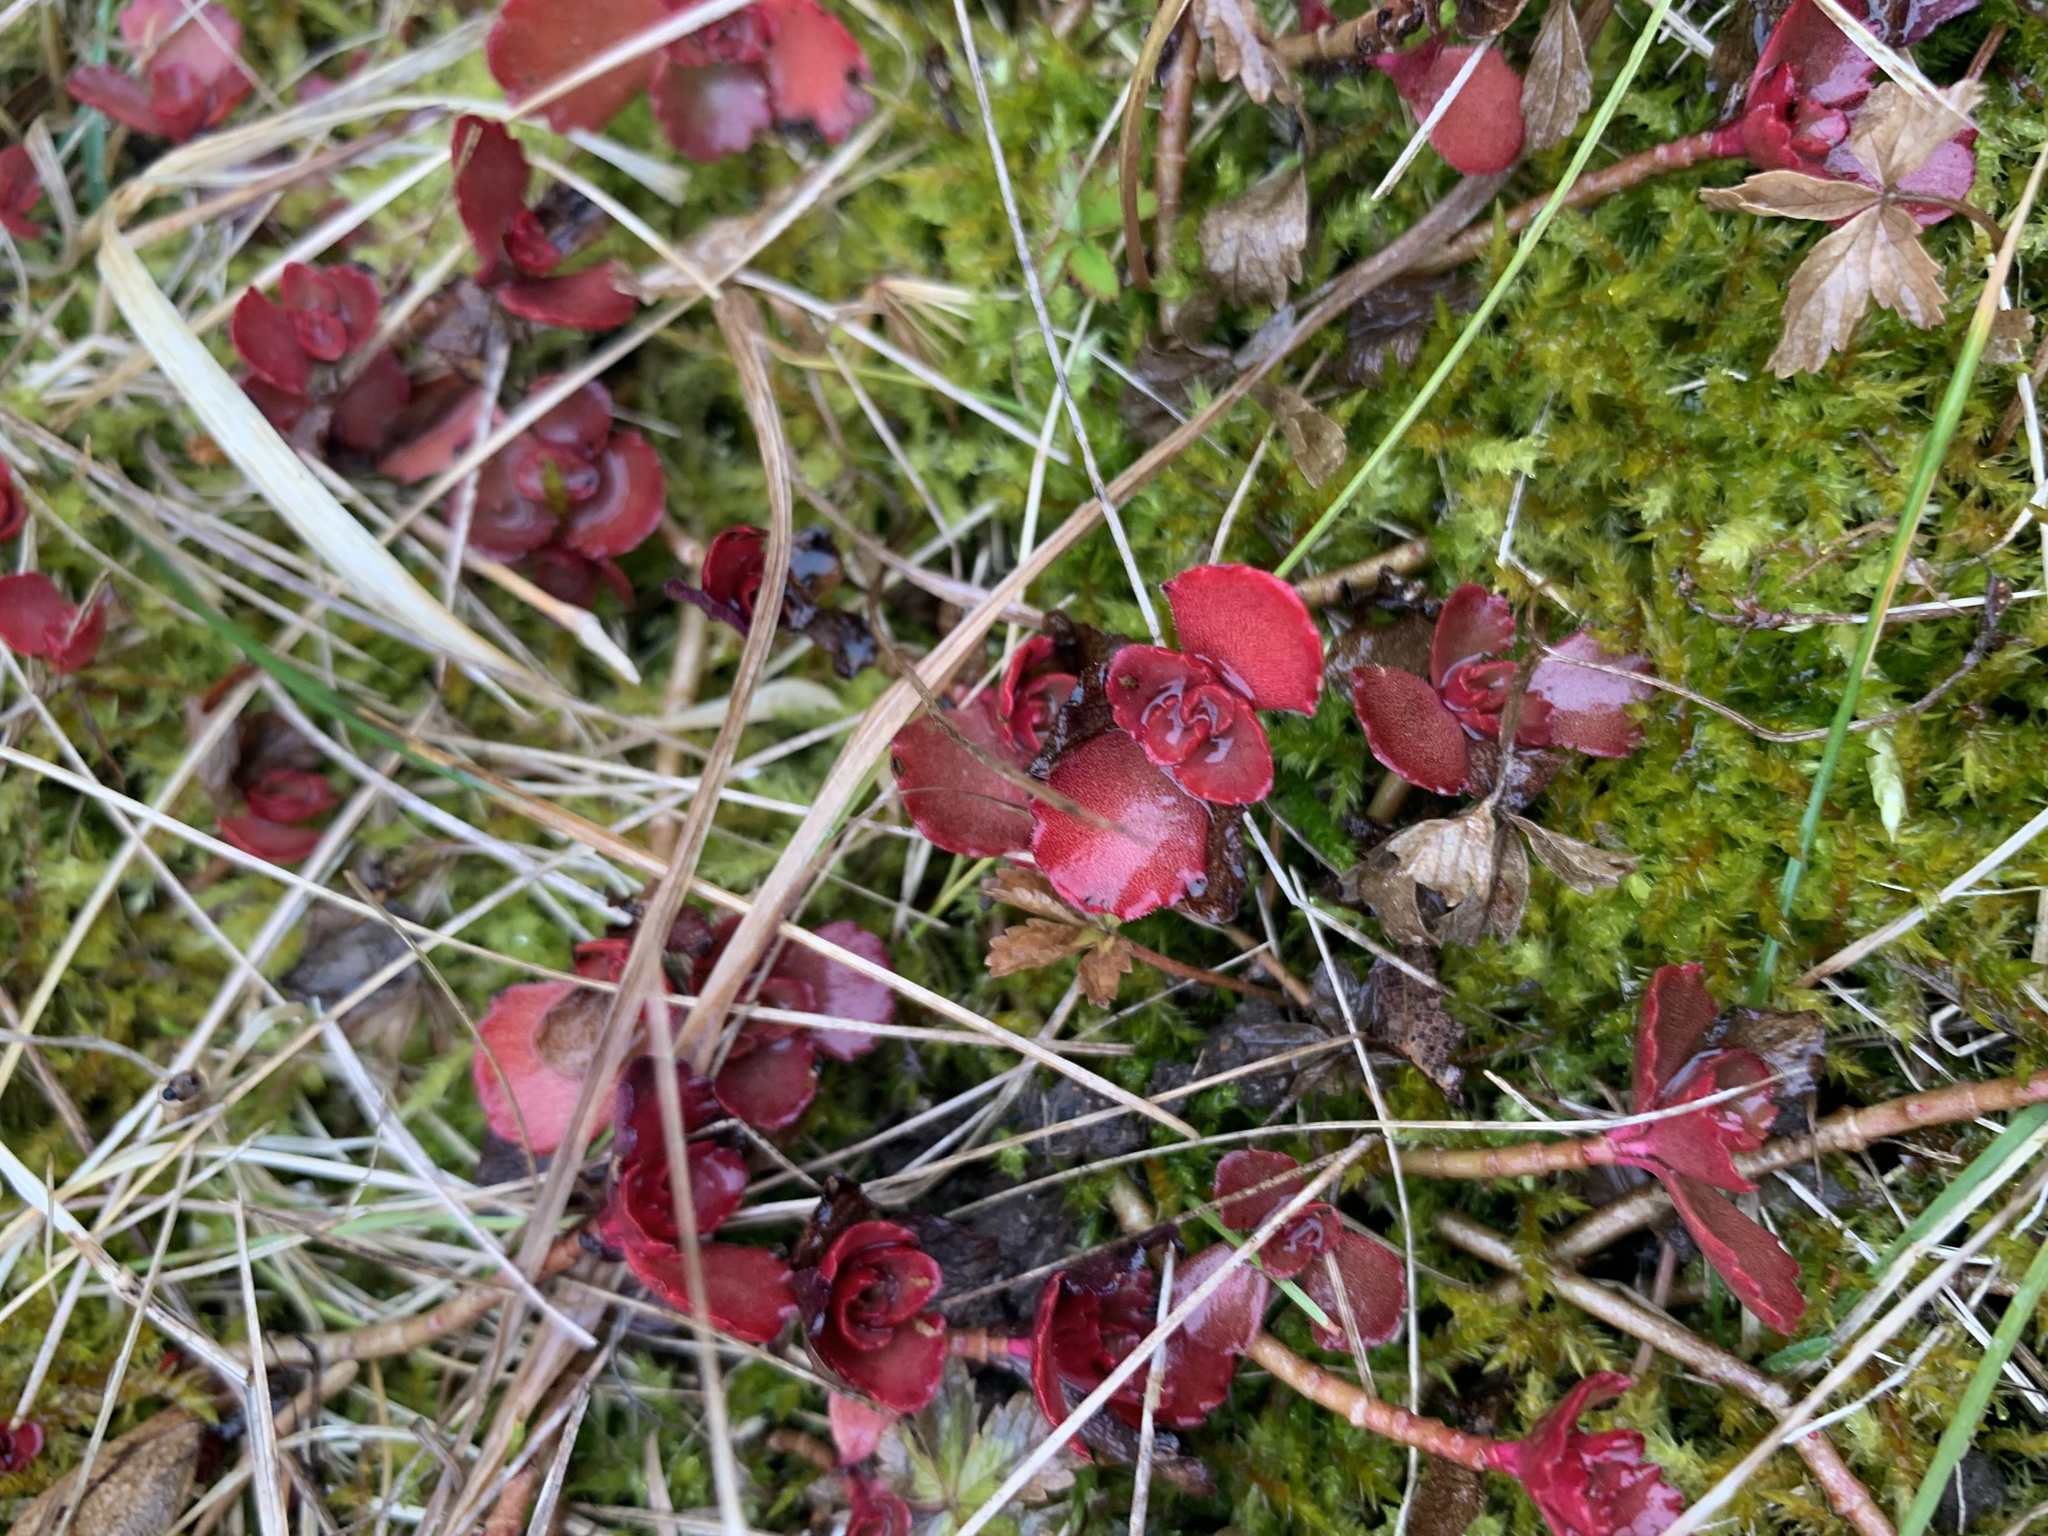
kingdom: Plantae
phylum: Tracheophyta
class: Magnoliopsida
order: Saxifragales
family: Crassulaceae
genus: Phedimus
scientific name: Phedimus spurius
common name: Caucasian stonecrop
